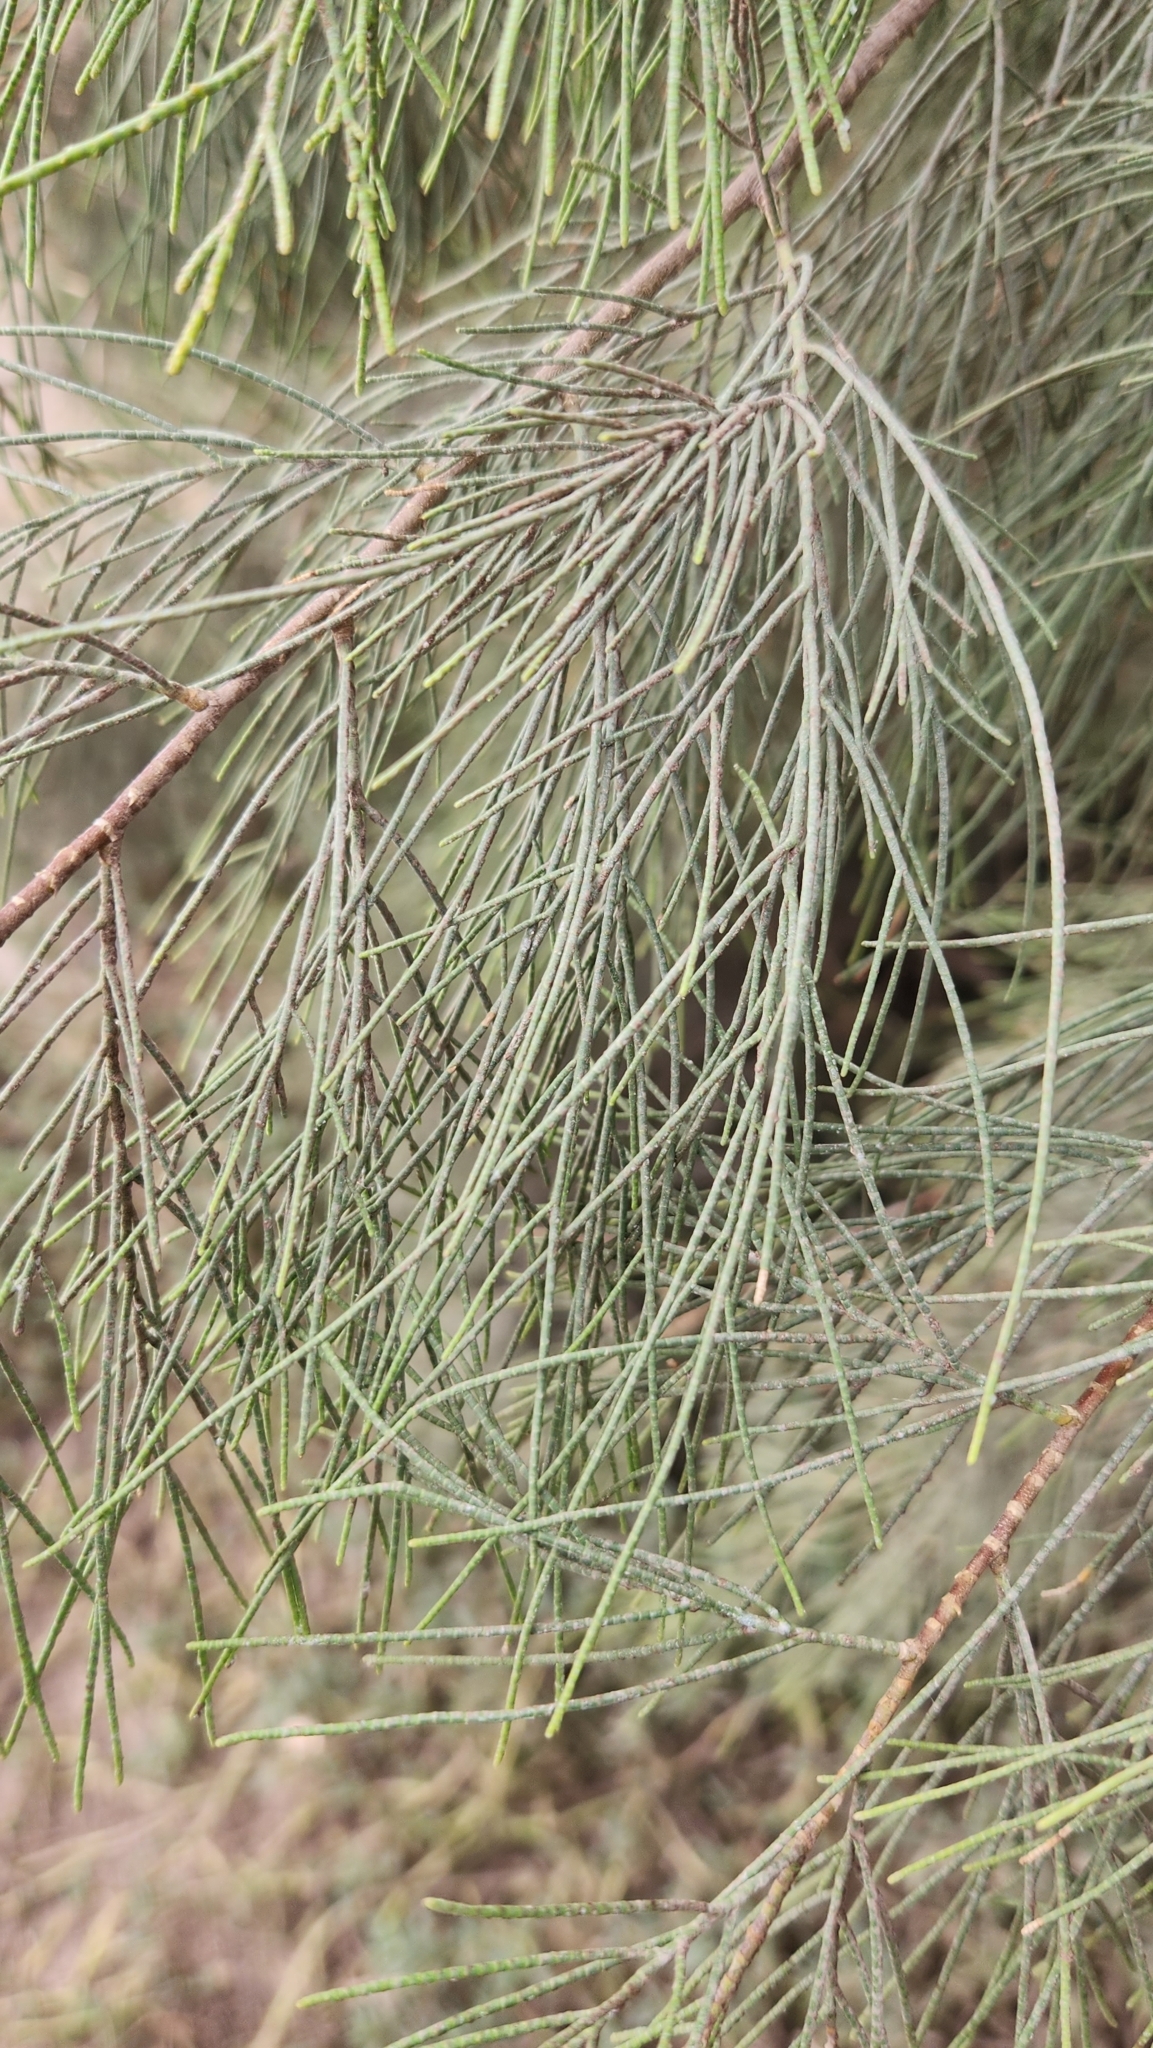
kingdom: Plantae
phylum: Tracheophyta
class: Magnoliopsida
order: Caryophyllales
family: Tamaricaceae
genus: Tamarix
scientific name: Tamarix aphylla
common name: Athel tamarisk
